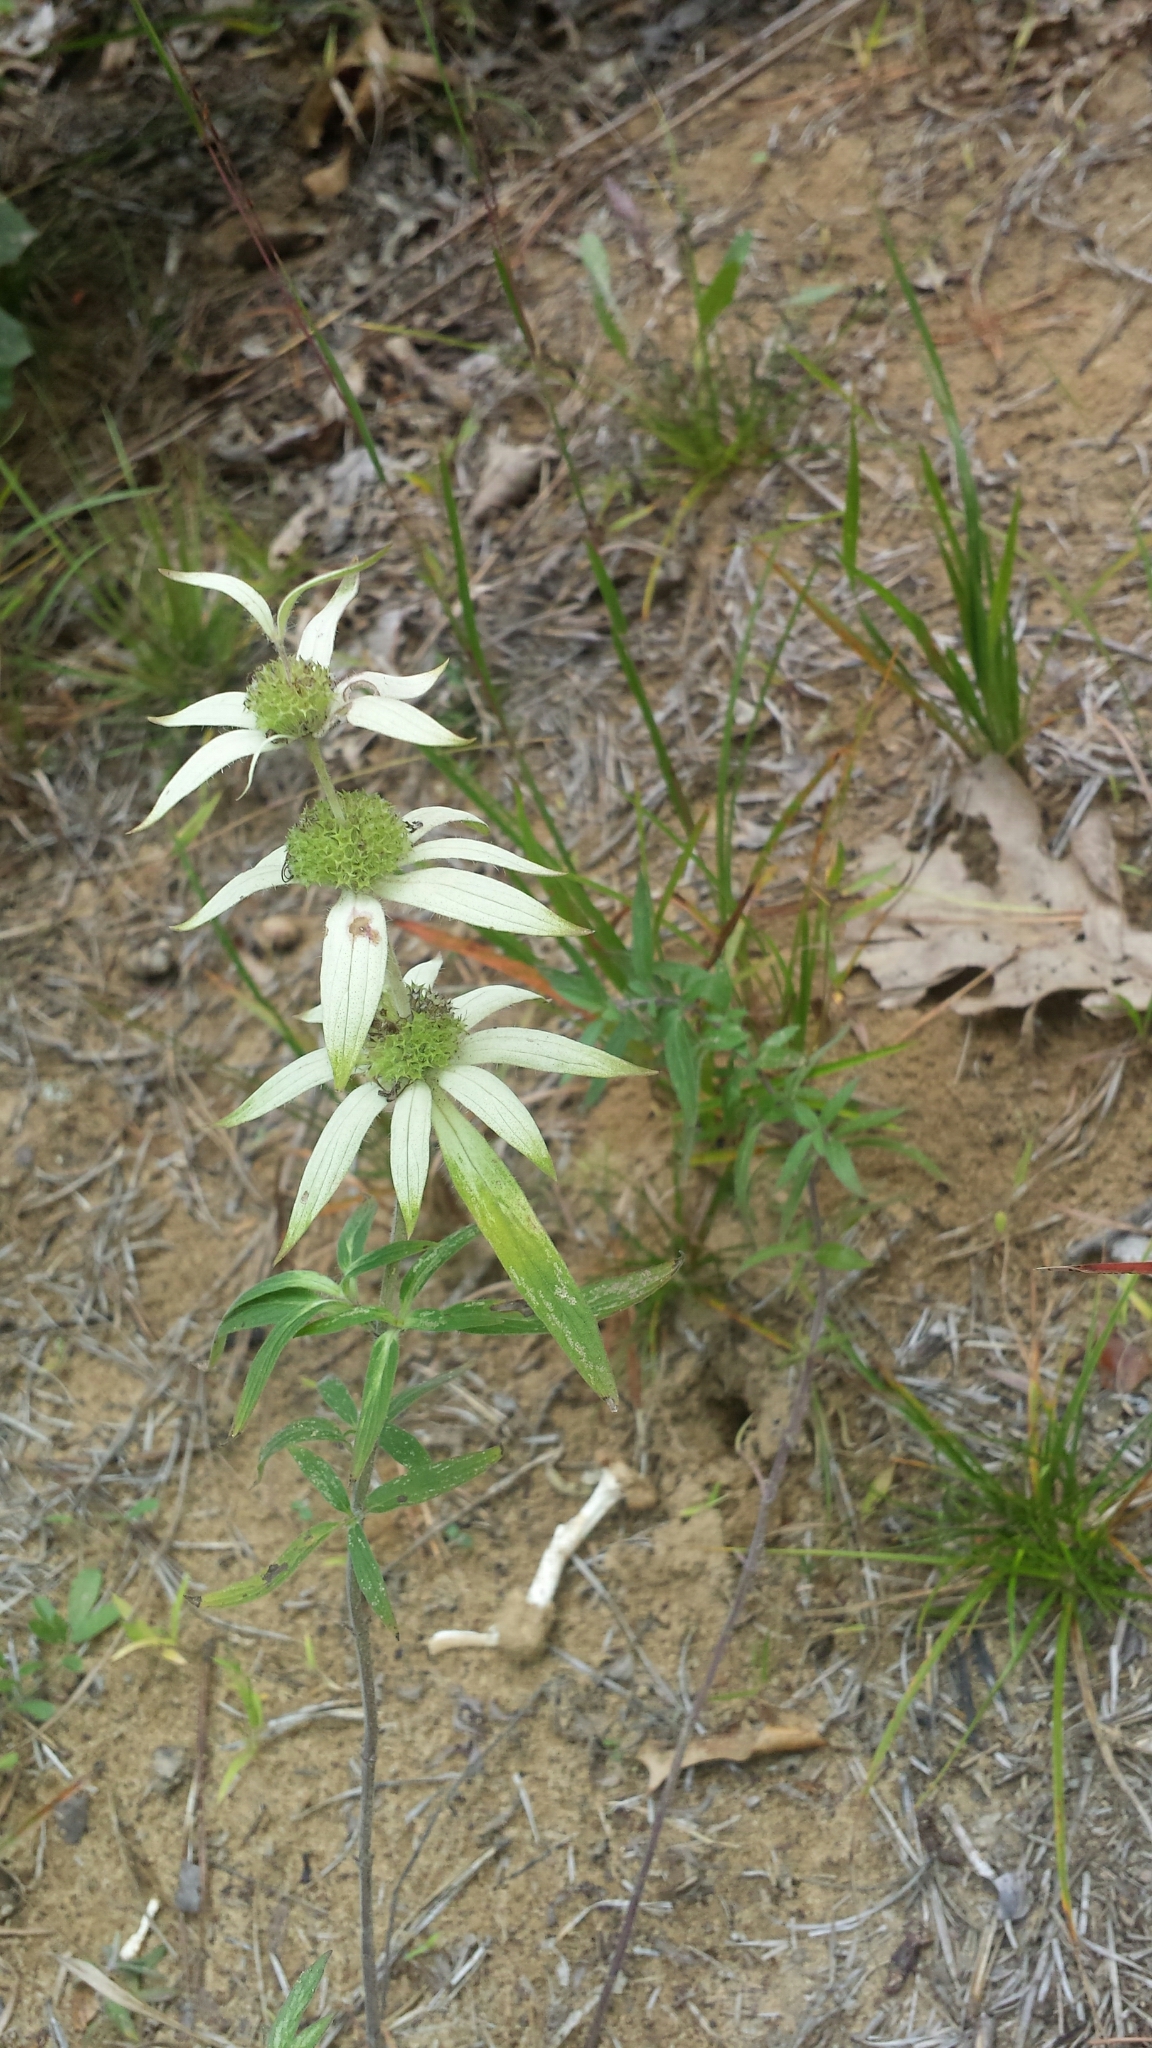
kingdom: Plantae
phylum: Tracheophyta
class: Magnoliopsida
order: Lamiales
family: Lamiaceae
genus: Monarda
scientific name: Monarda punctata
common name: Dotted monarda
